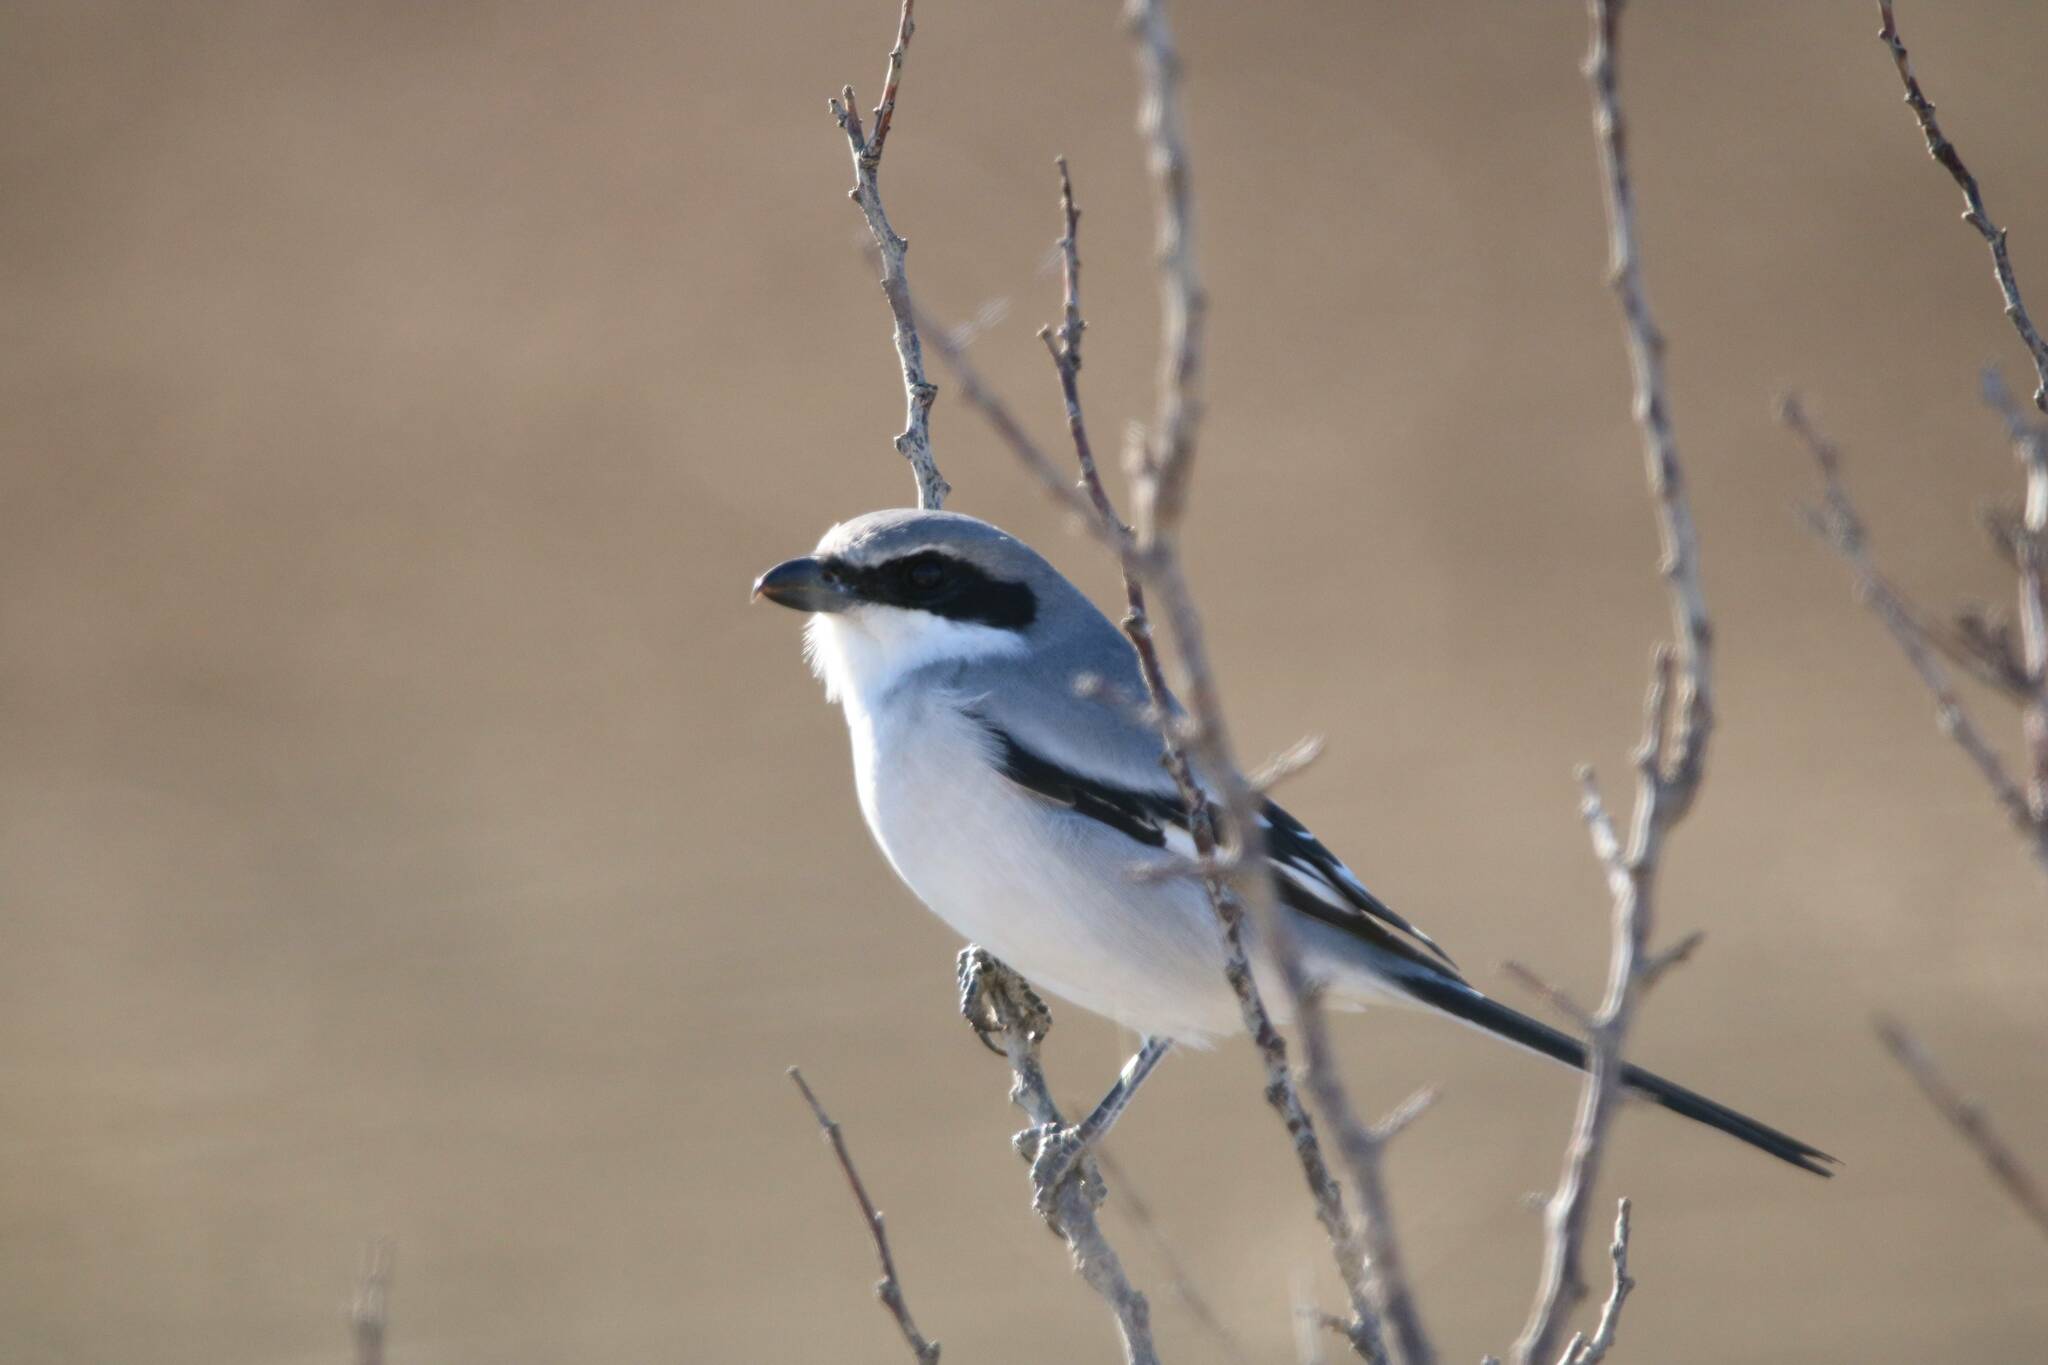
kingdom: Animalia
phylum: Chordata
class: Aves
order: Passeriformes
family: Laniidae
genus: Lanius
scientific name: Lanius excubitor
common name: Great grey shrike
